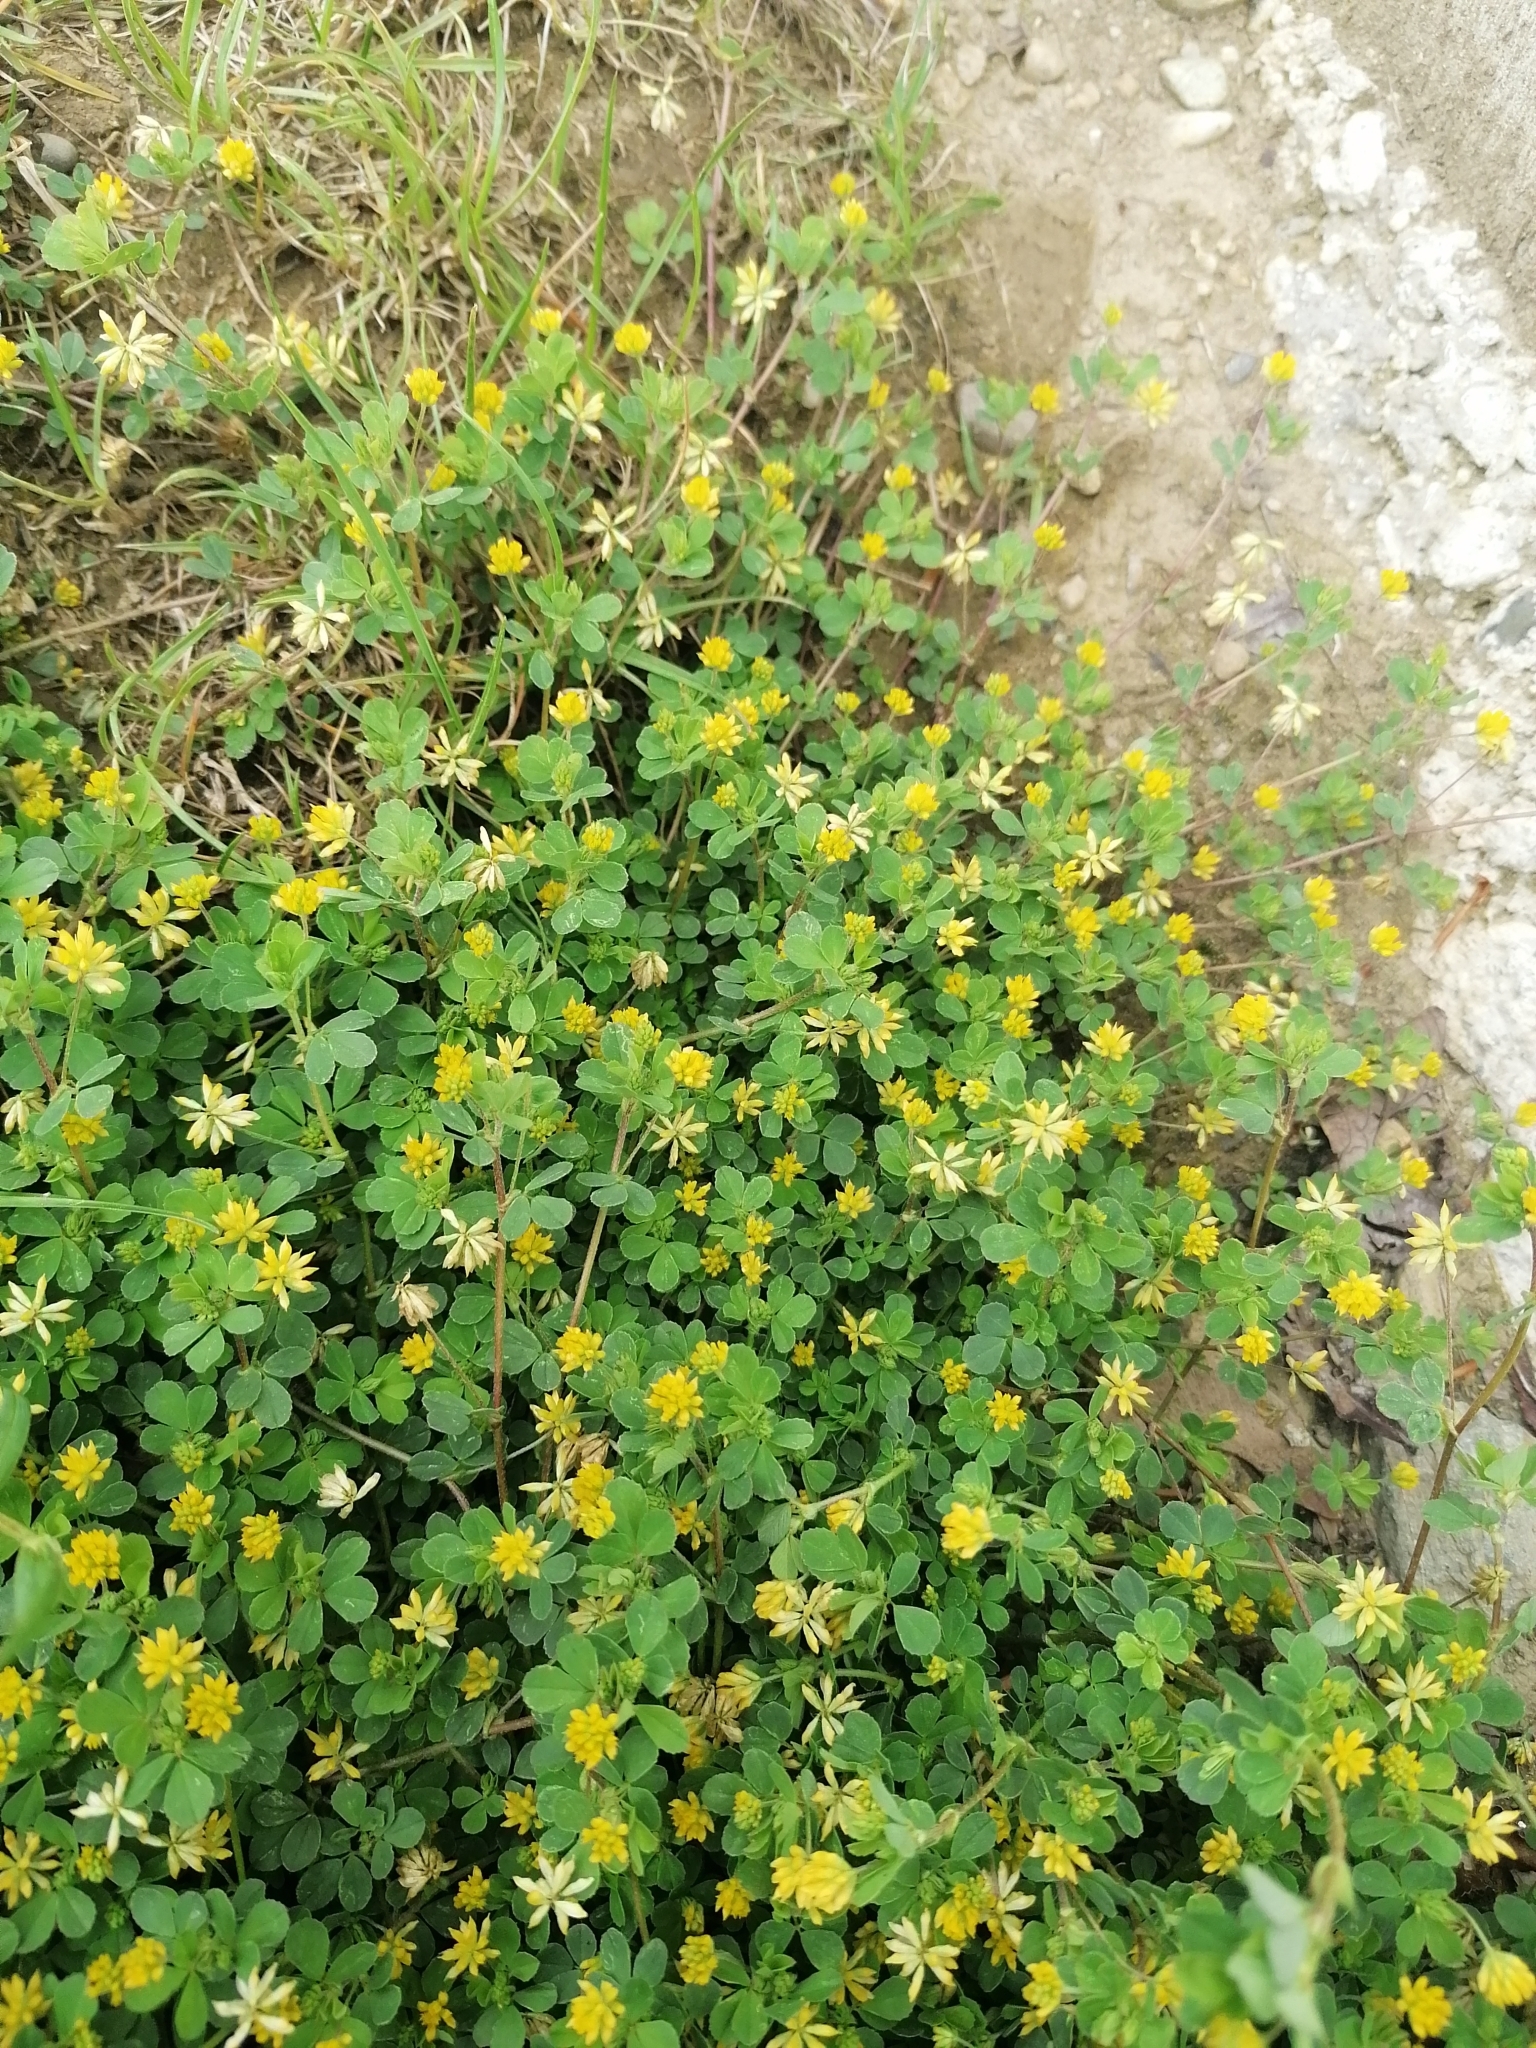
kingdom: Plantae
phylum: Tracheophyta
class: Magnoliopsida
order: Fabales
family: Fabaceae
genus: Trifolium
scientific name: Trifolium dubium
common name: Suckling clover
